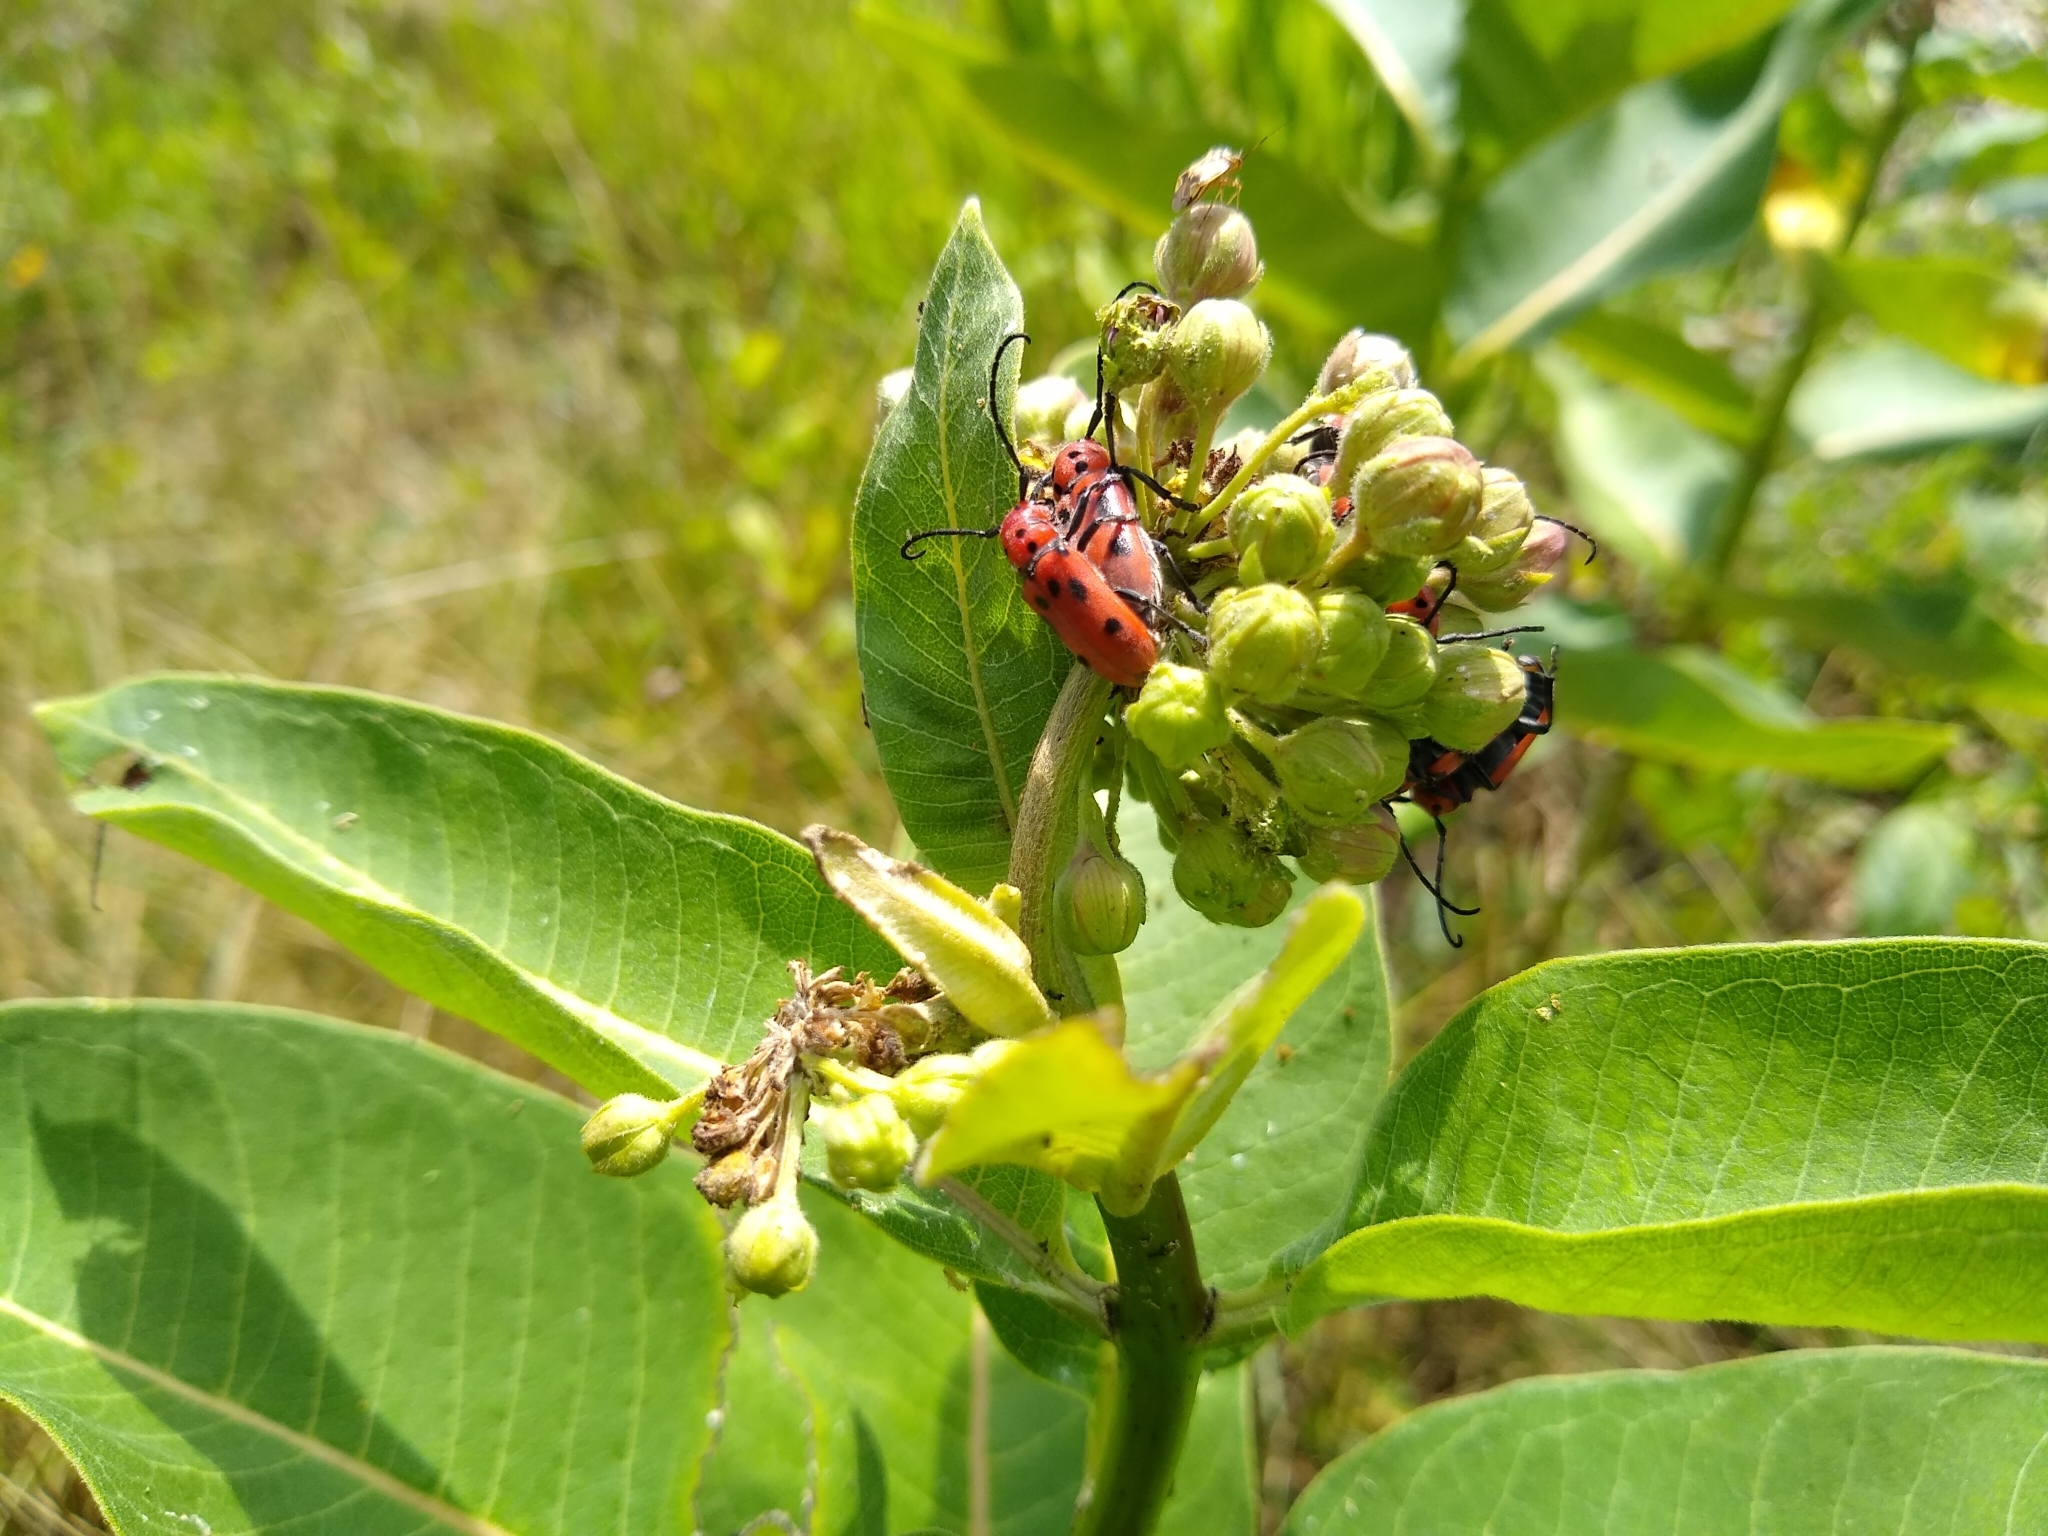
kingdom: Animalia
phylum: Arthropoda
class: Insecta
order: Coleoptera
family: Cerambycidae
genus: Tetraopes
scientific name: Tetraopes tetrophthalmus
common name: Red milkweed beetle
